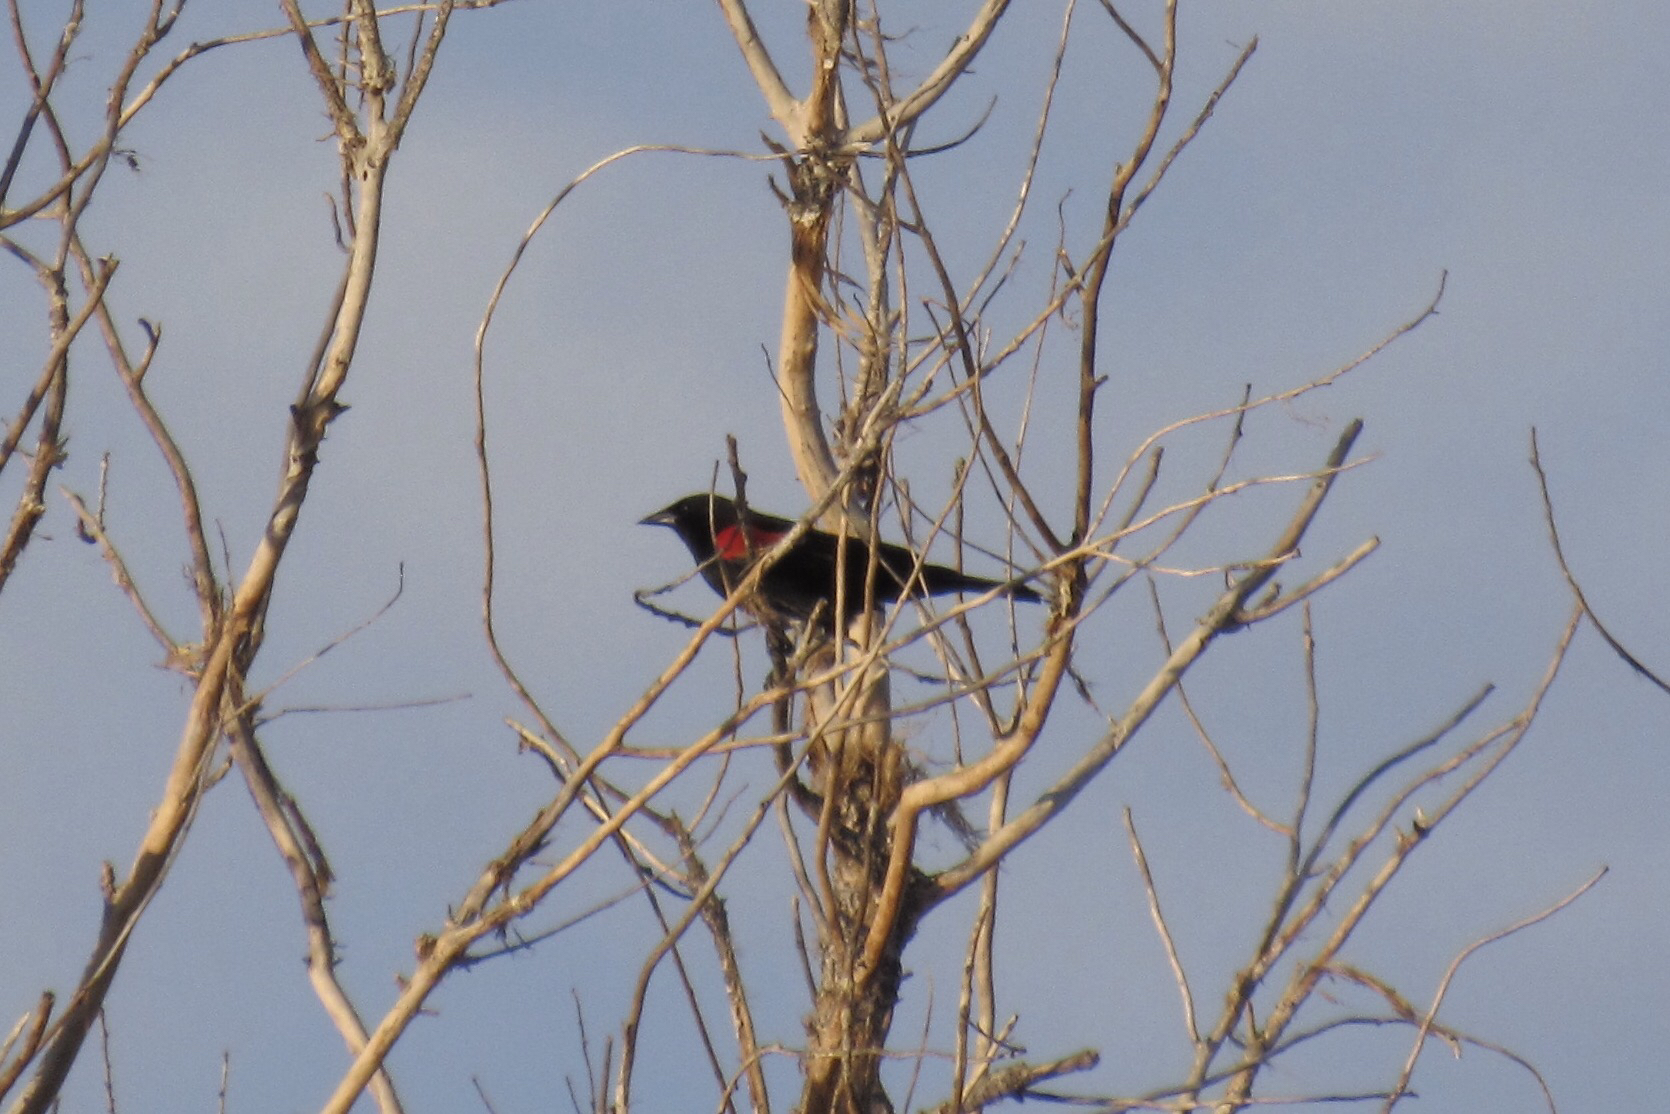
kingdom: Animalia
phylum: Chordata
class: Aves
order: Passeriformes
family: Icteridae
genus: Agelaius
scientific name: Agelaius phoeniceus
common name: Red-winged blackbird
